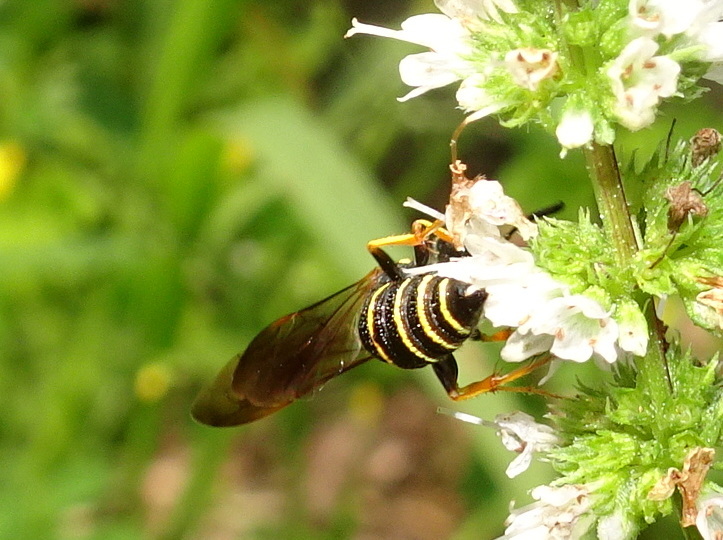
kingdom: Animalia
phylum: Arthropoda
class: Insecta
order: Hymenoptera
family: Crabronidae
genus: Philanthus
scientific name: Philanthus gibbosus
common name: Humped beewolf
